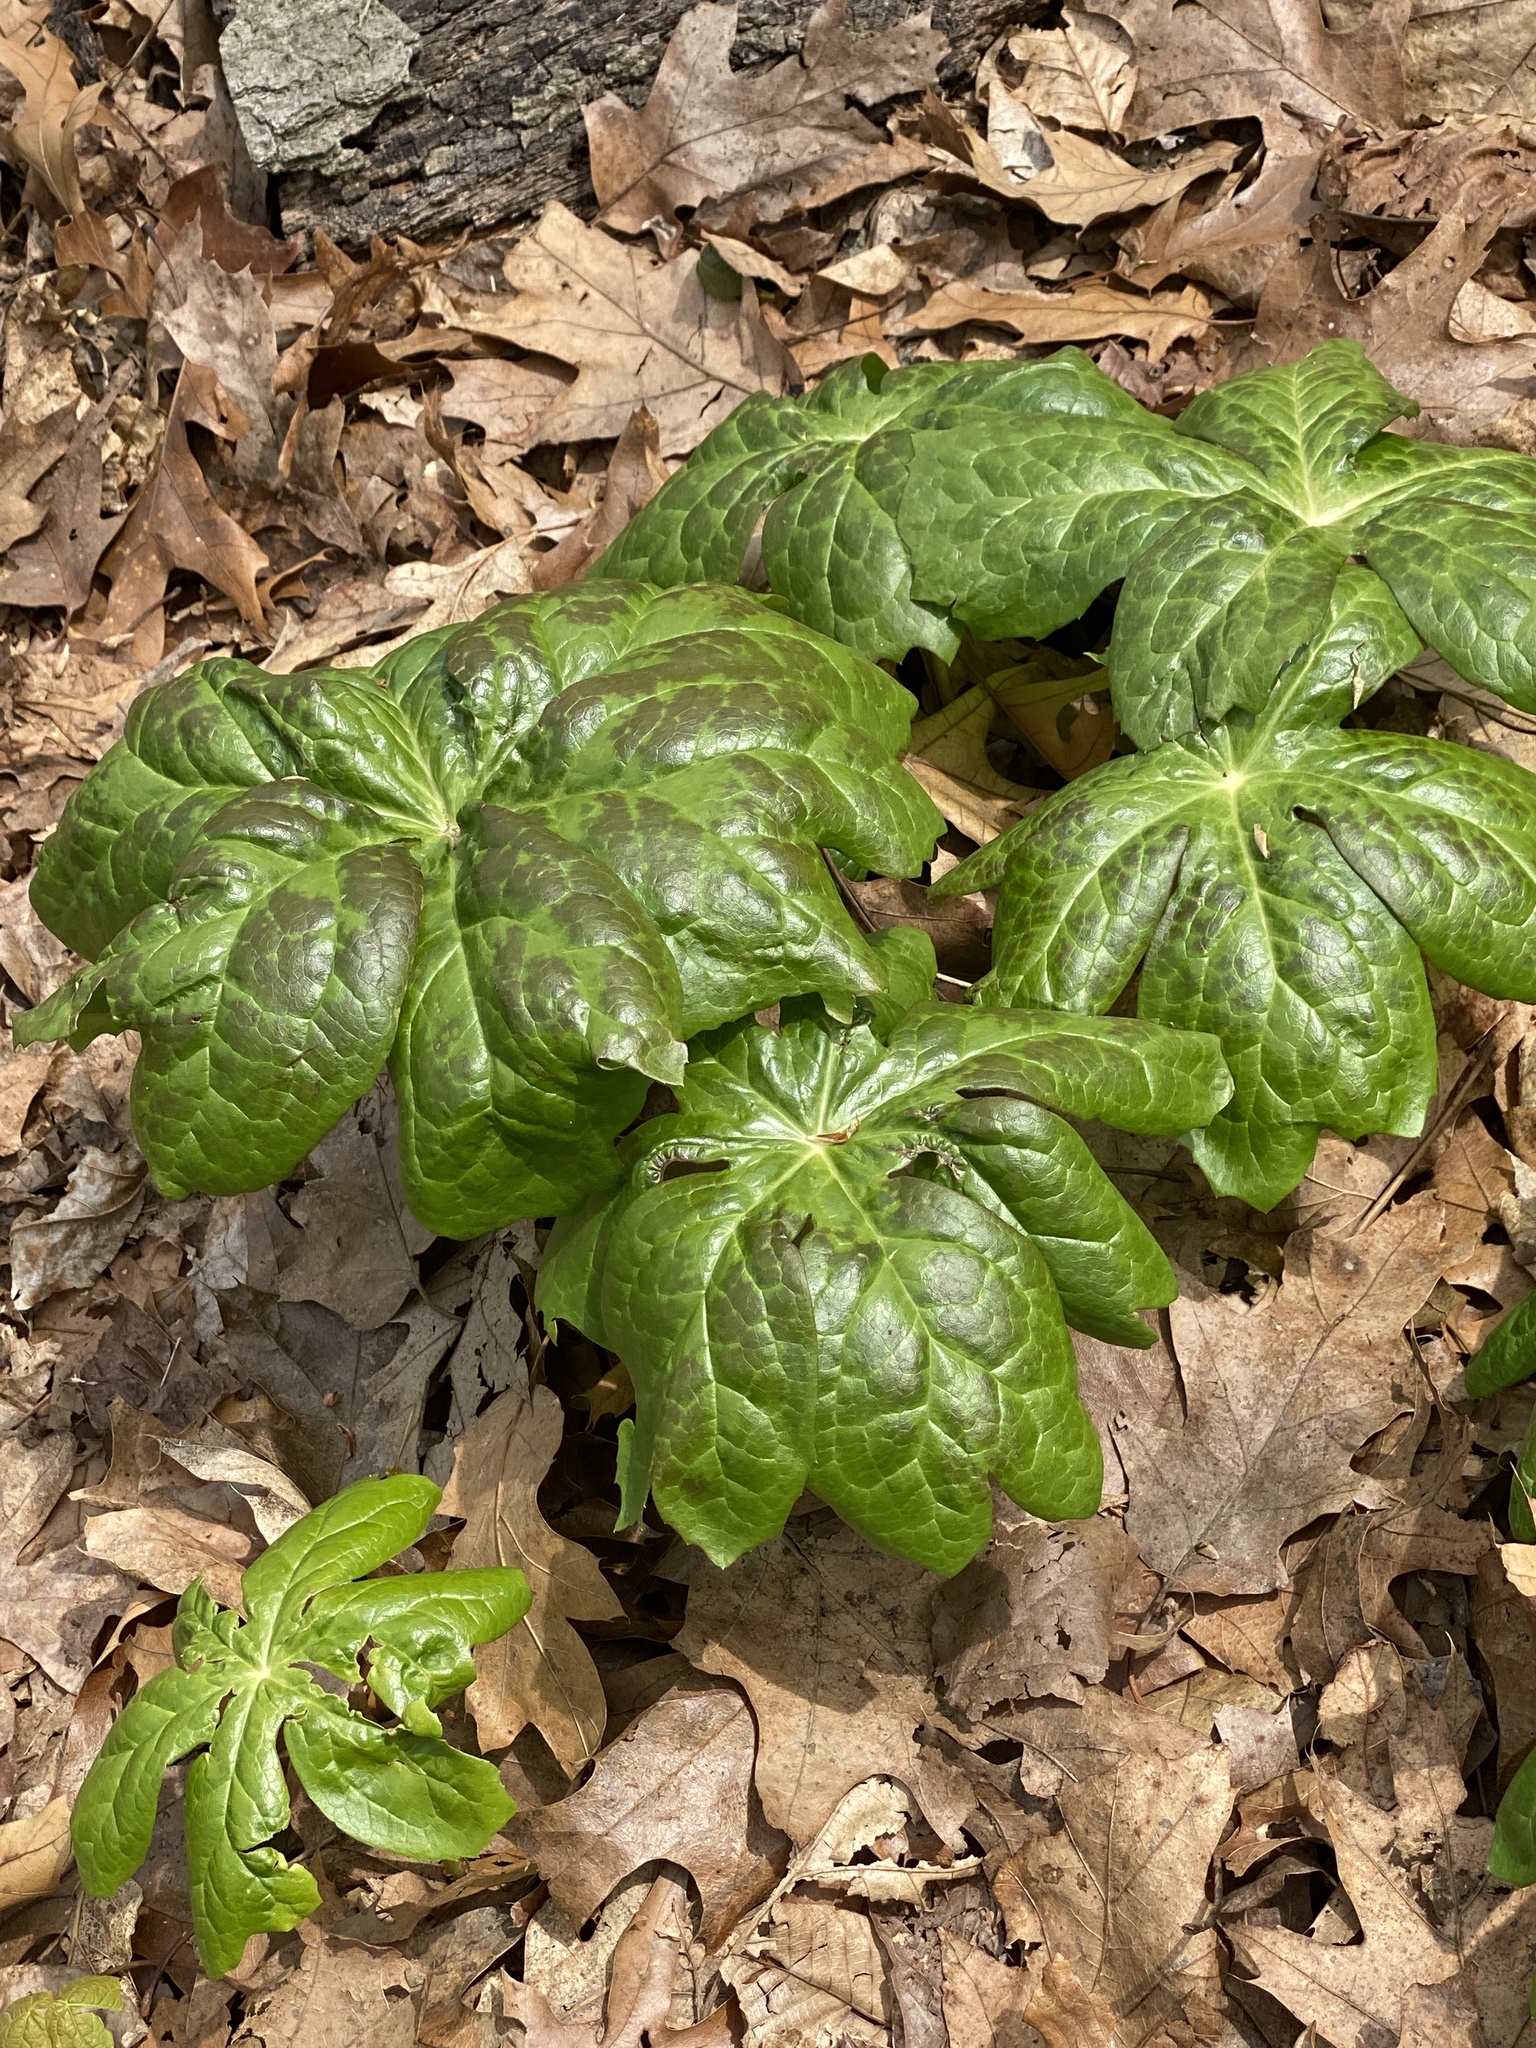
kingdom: Plantae
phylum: Tracheophyta
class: Magnoliopsida
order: Ranunculales
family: Berberidaceae
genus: Podophyllum
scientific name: Podophyllum peltatum
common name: Wild mandrake
